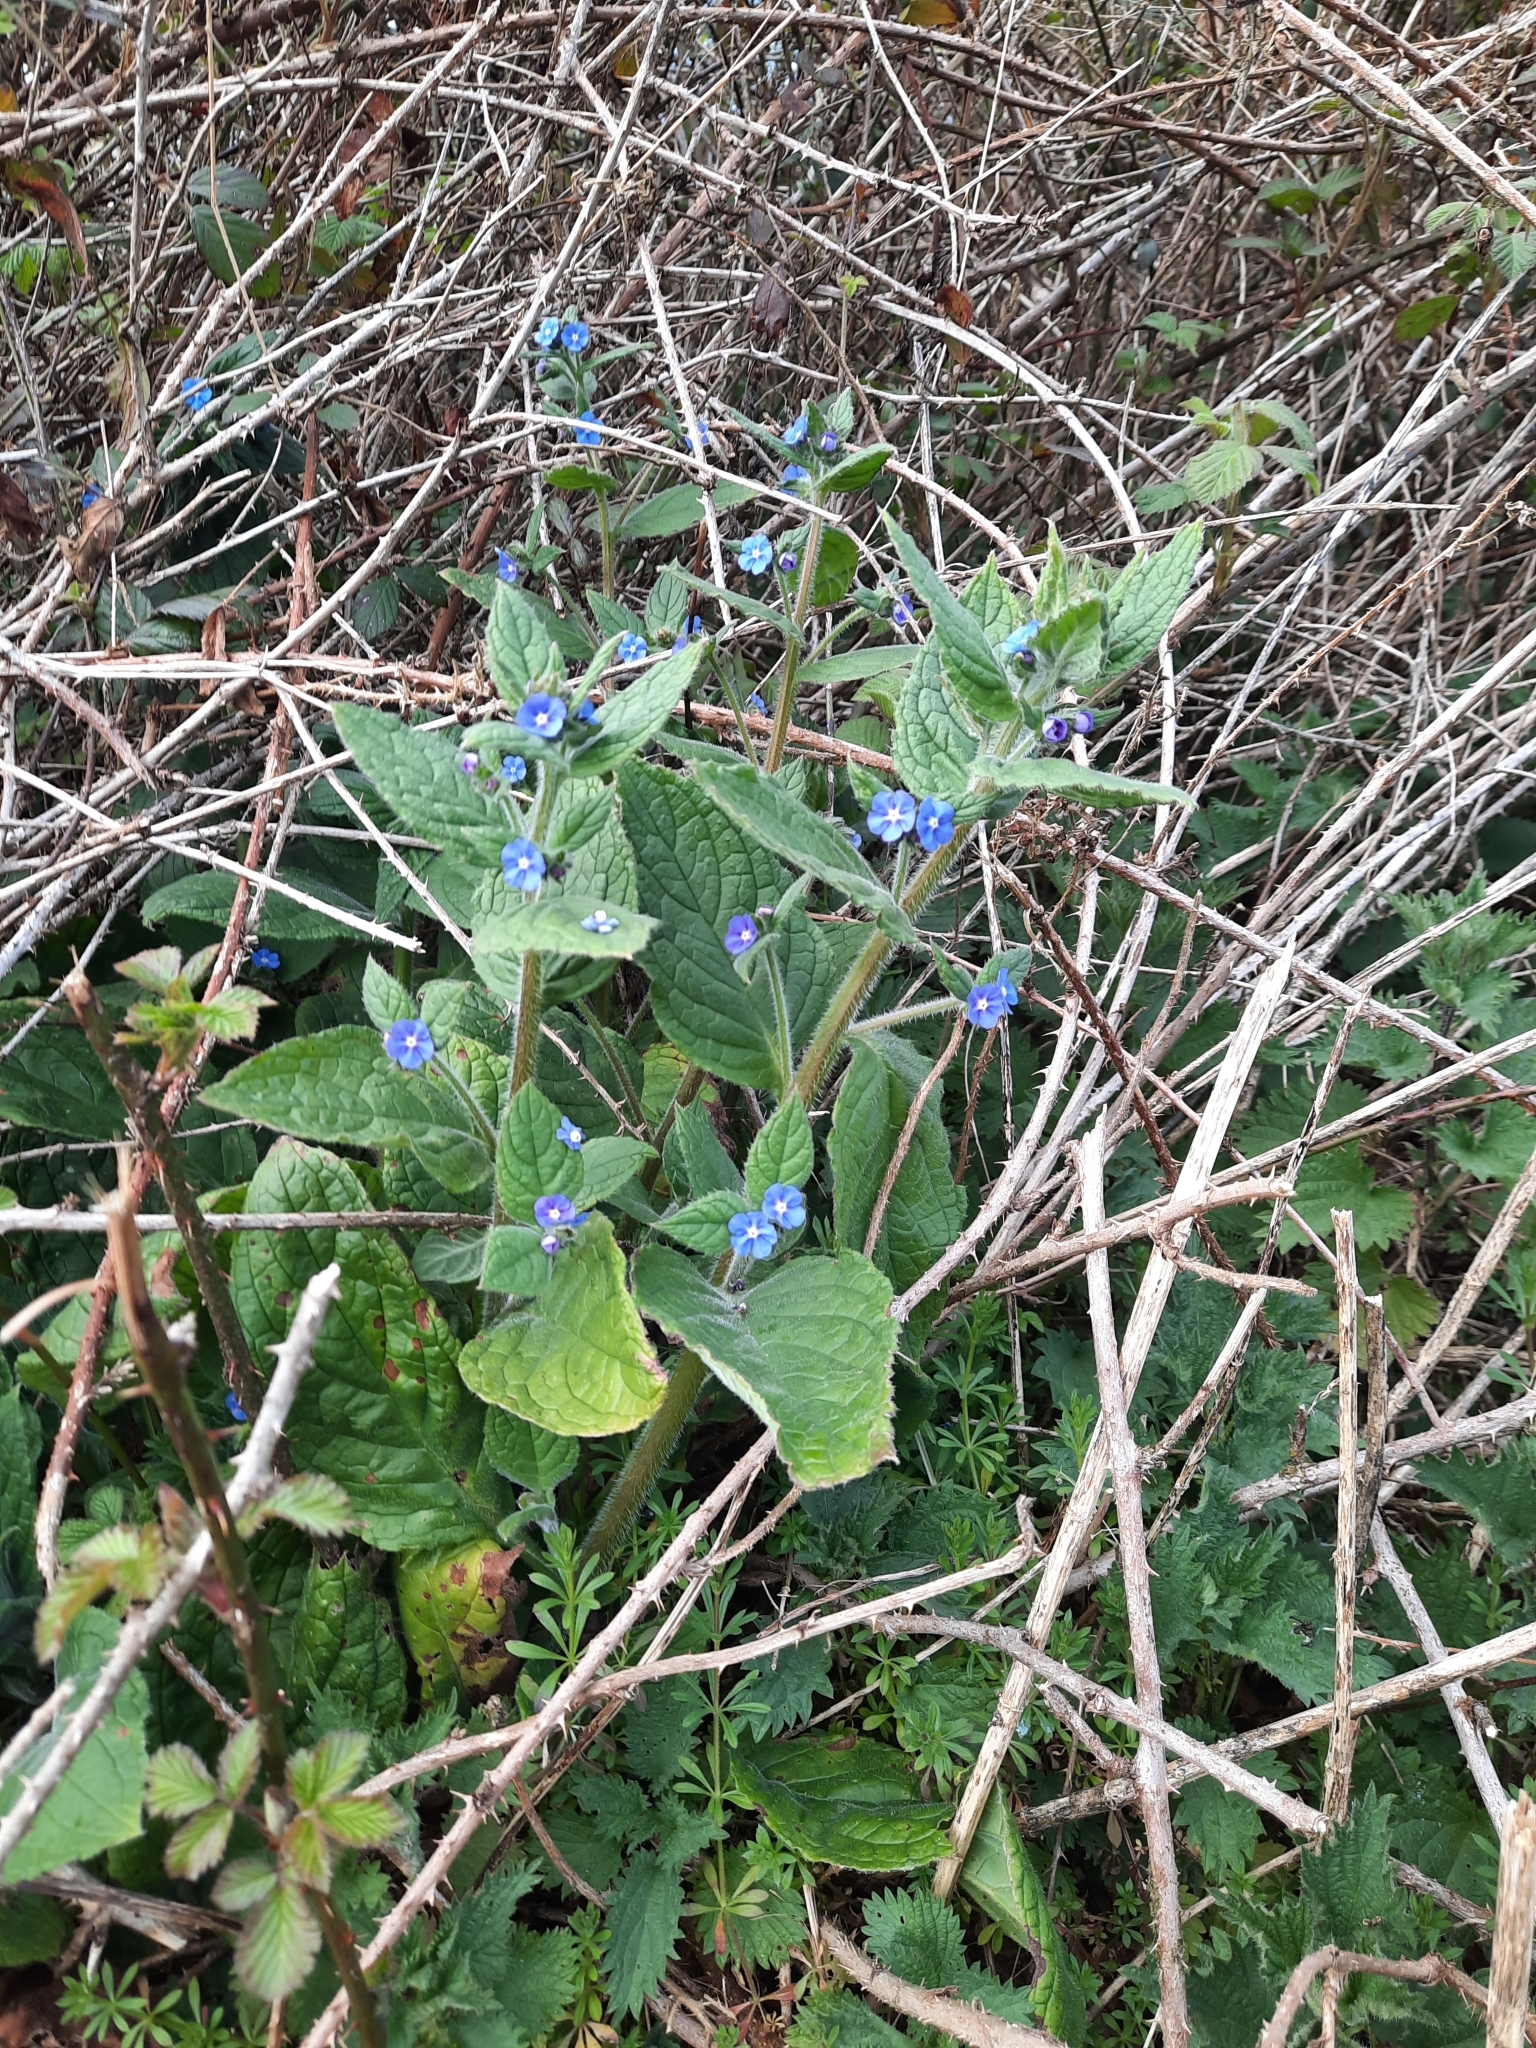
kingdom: Plantae
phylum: Tracheophyta
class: Magnoliopsida
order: Boraginales
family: Boraginaceae
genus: Pentaglottis
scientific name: Pentaglottis sempervirens
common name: Green alkanet
